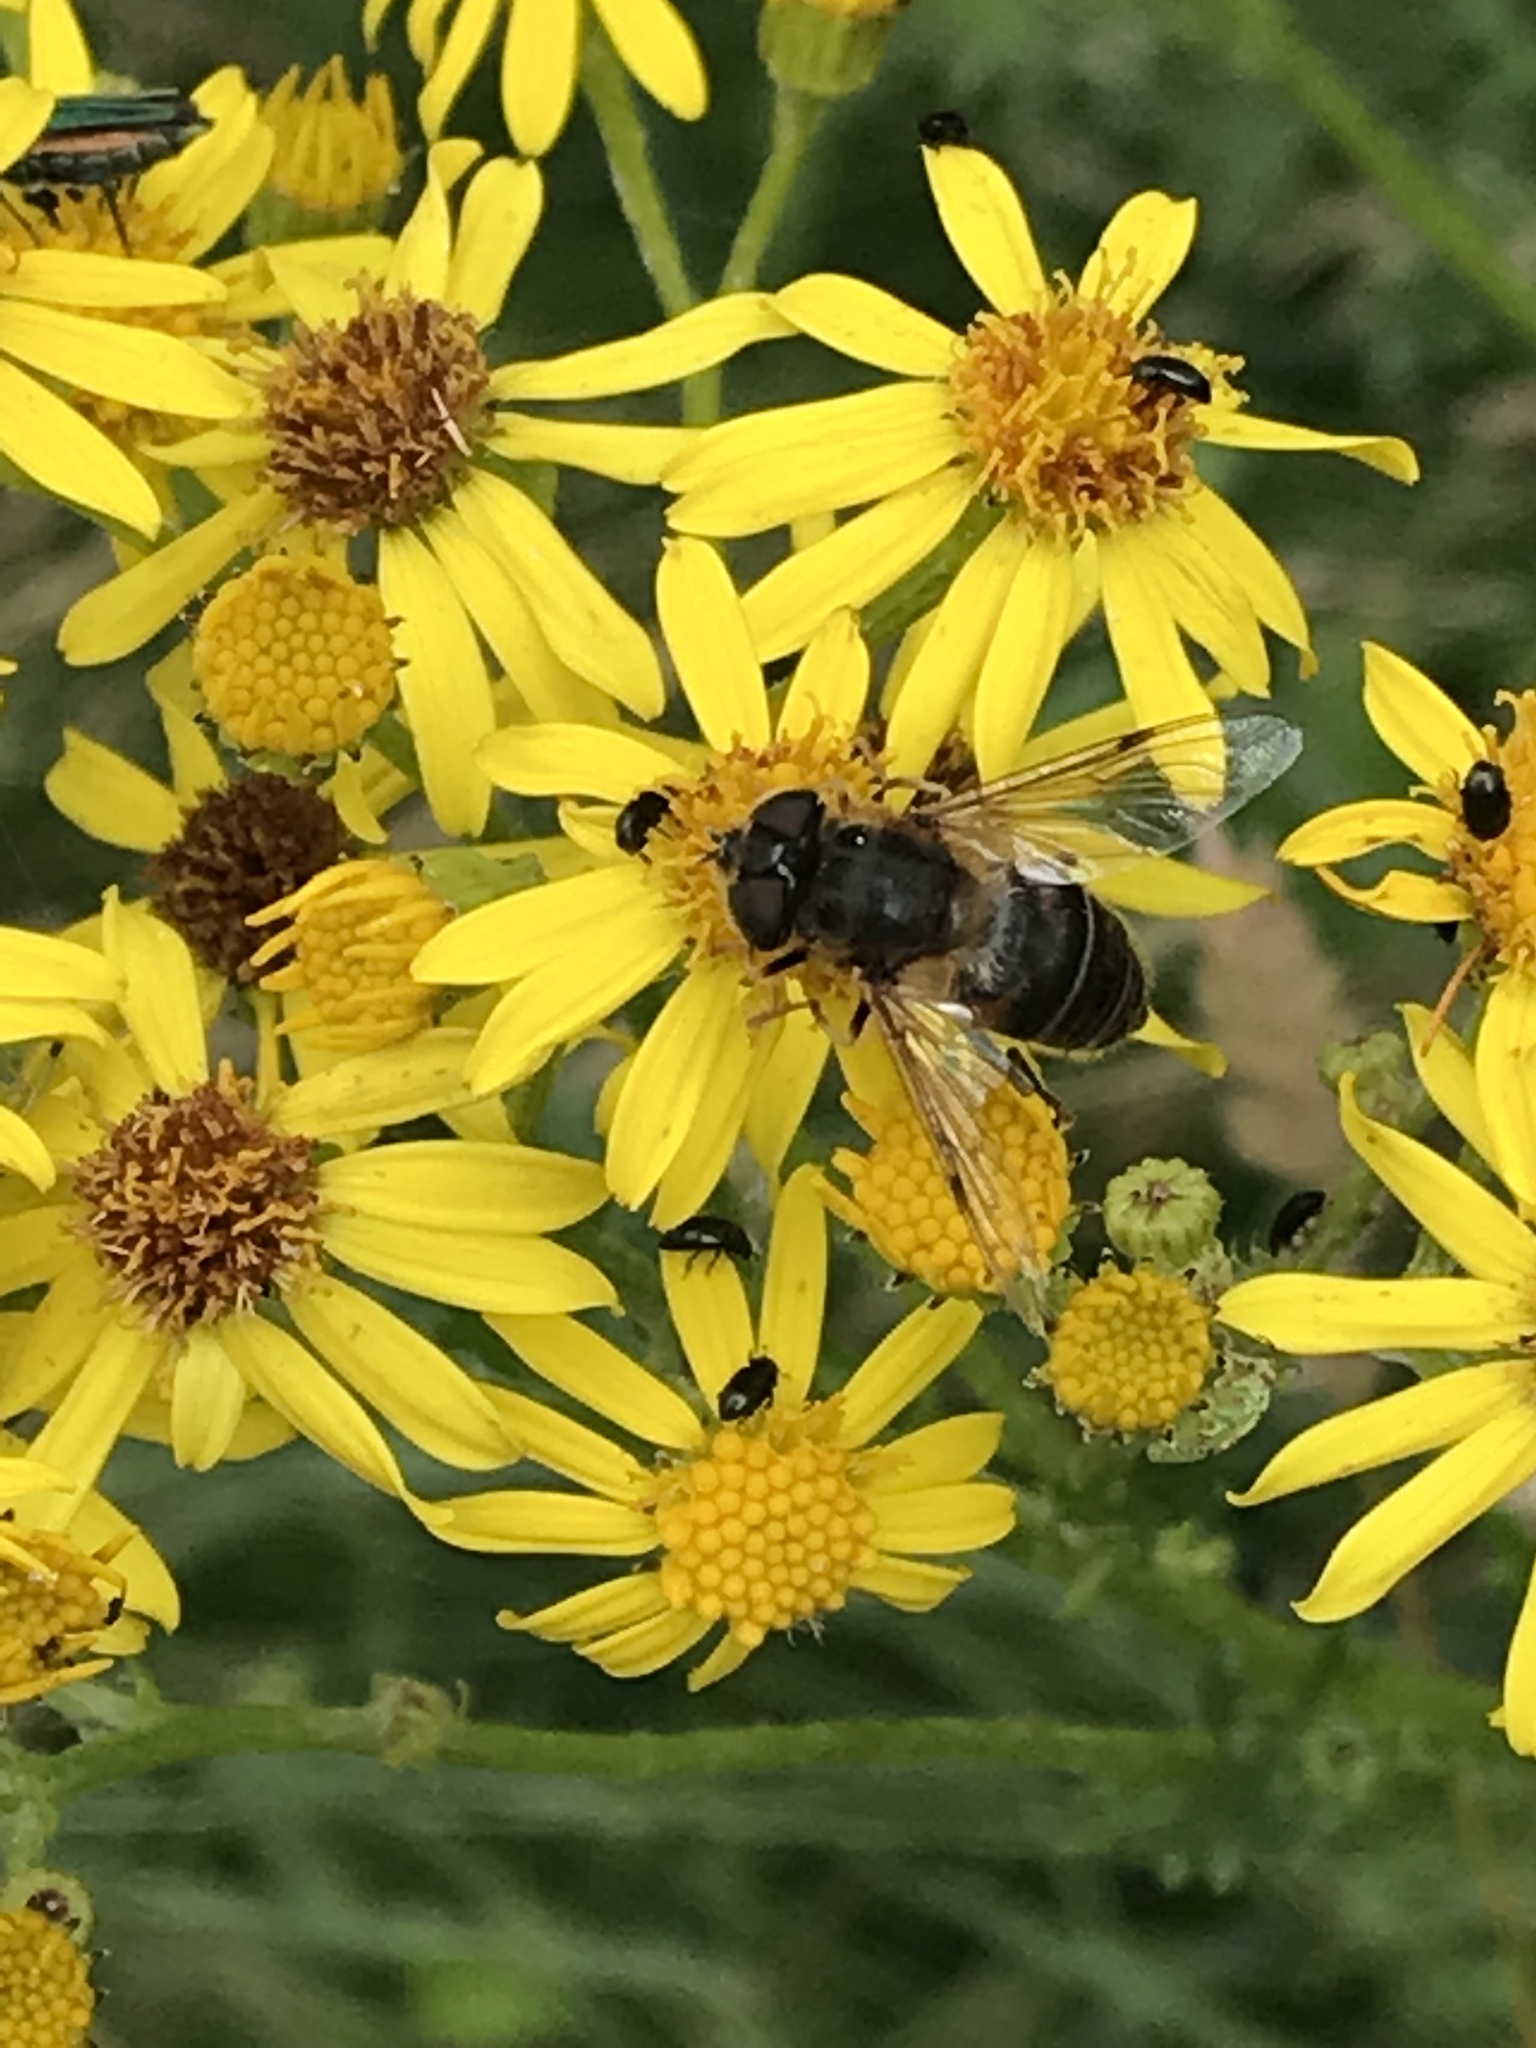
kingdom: Animalia
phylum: Arthropoda
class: Insecta
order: Diptera
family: Syrphidae
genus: Eristalis
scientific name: Eristalis pertinax
